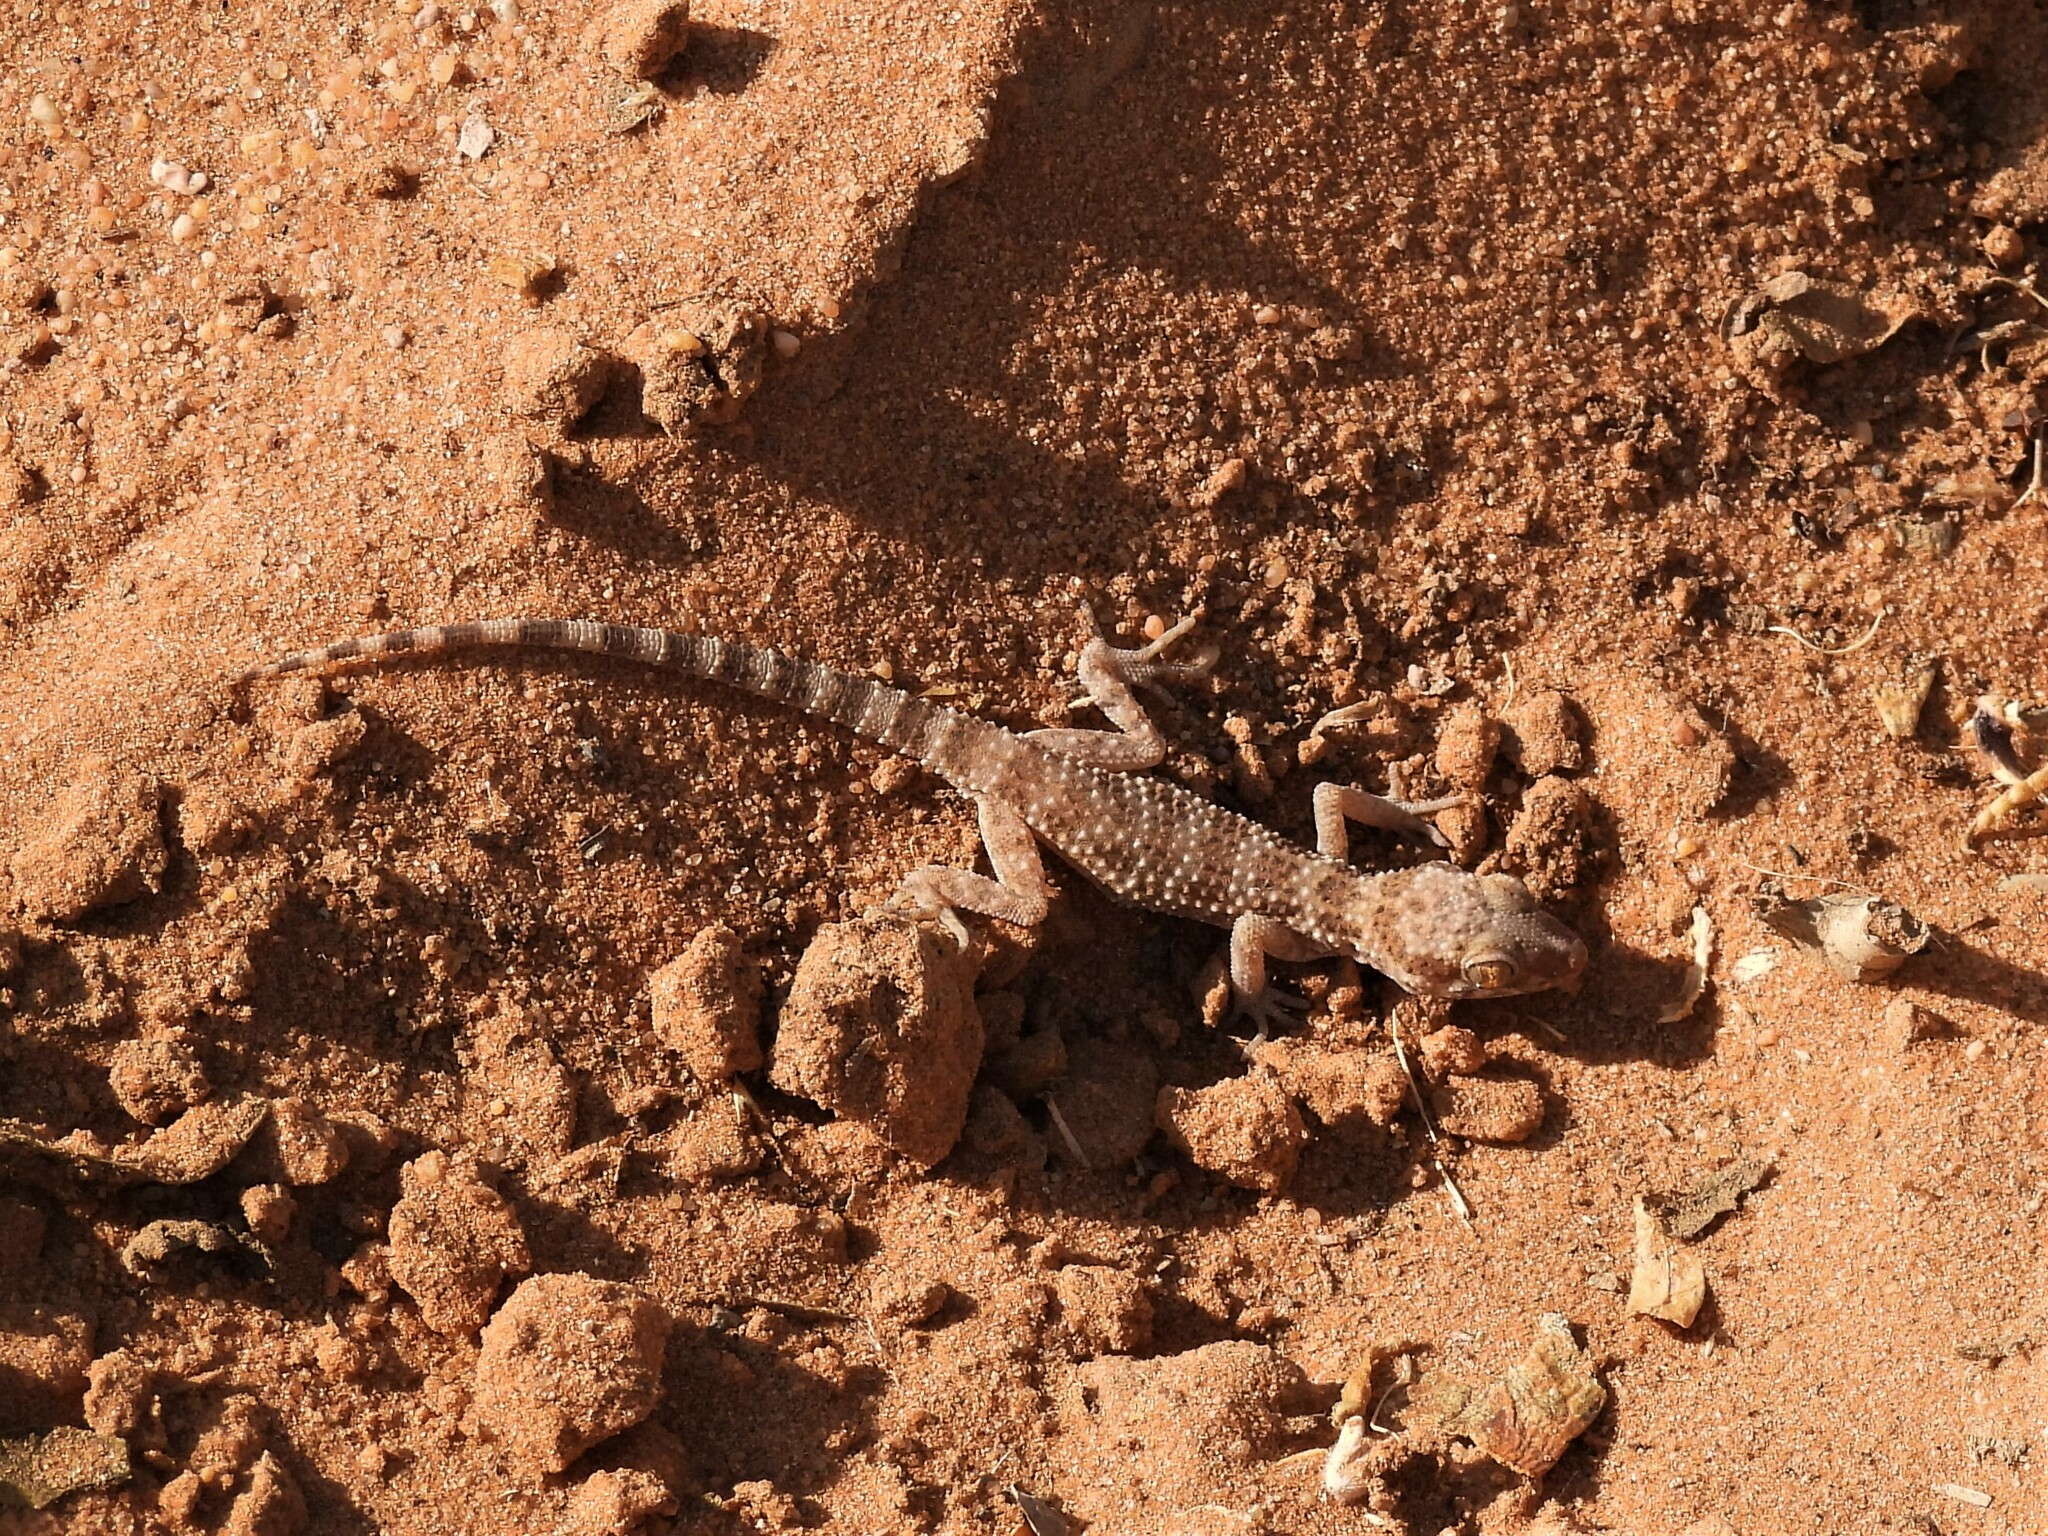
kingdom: Animalia
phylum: Chordata
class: Squamata
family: Gekkonidae
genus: Bunopus
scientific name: Bunopus tuberculatus
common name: Southern tuberculated gecko
